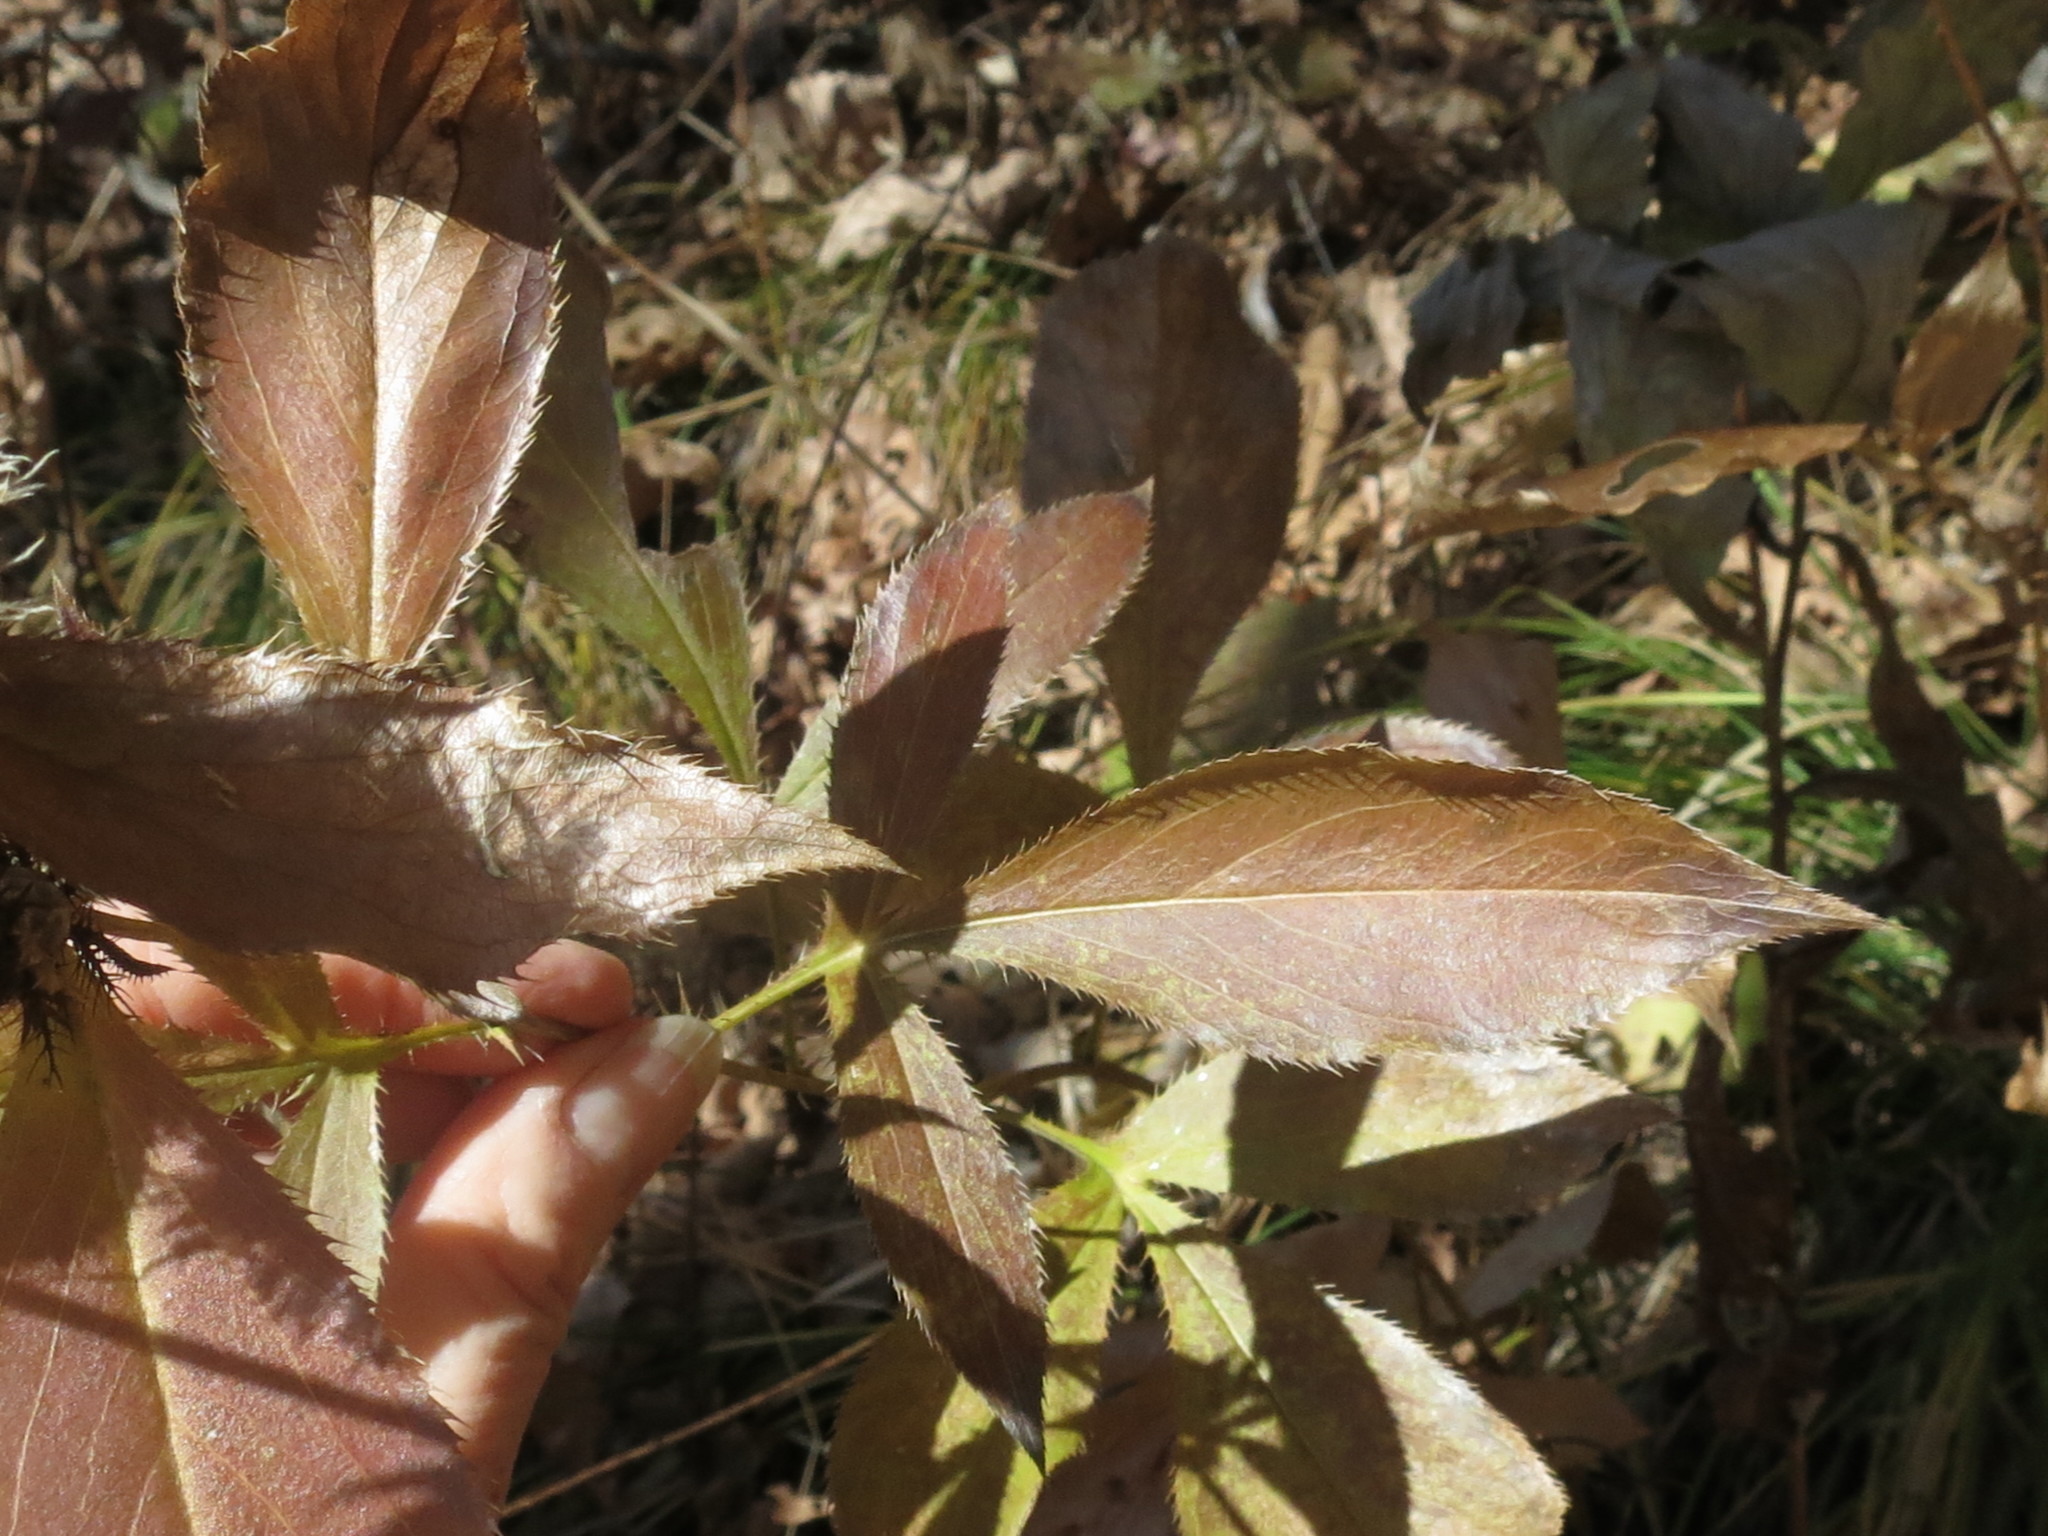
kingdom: Plantae
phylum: Tracheophyta
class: Magnoliopsida
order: Asterales
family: Asteraceae
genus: Atractylodes
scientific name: Atractylodes lancea
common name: Southern tsangshu
